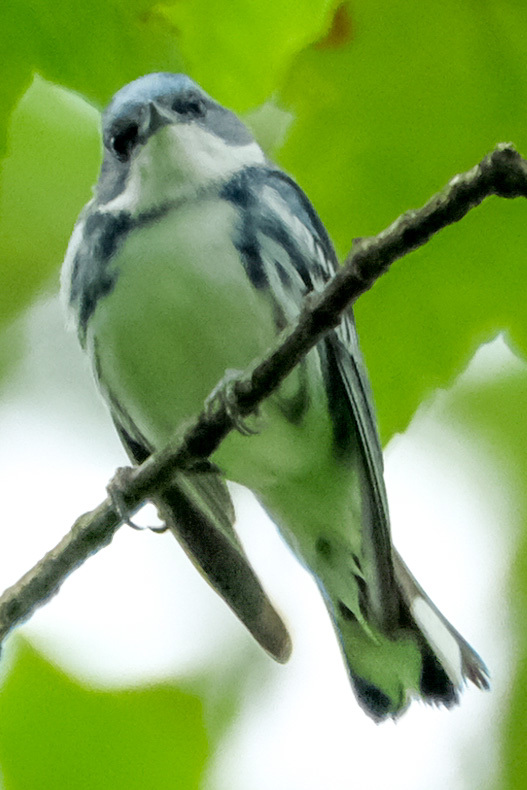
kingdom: Animalia
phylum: Chordata
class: Aves
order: Passeriformes
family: Parulidae
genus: Setophaga
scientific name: Setophaga cerulea
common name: Cerulean warbler
